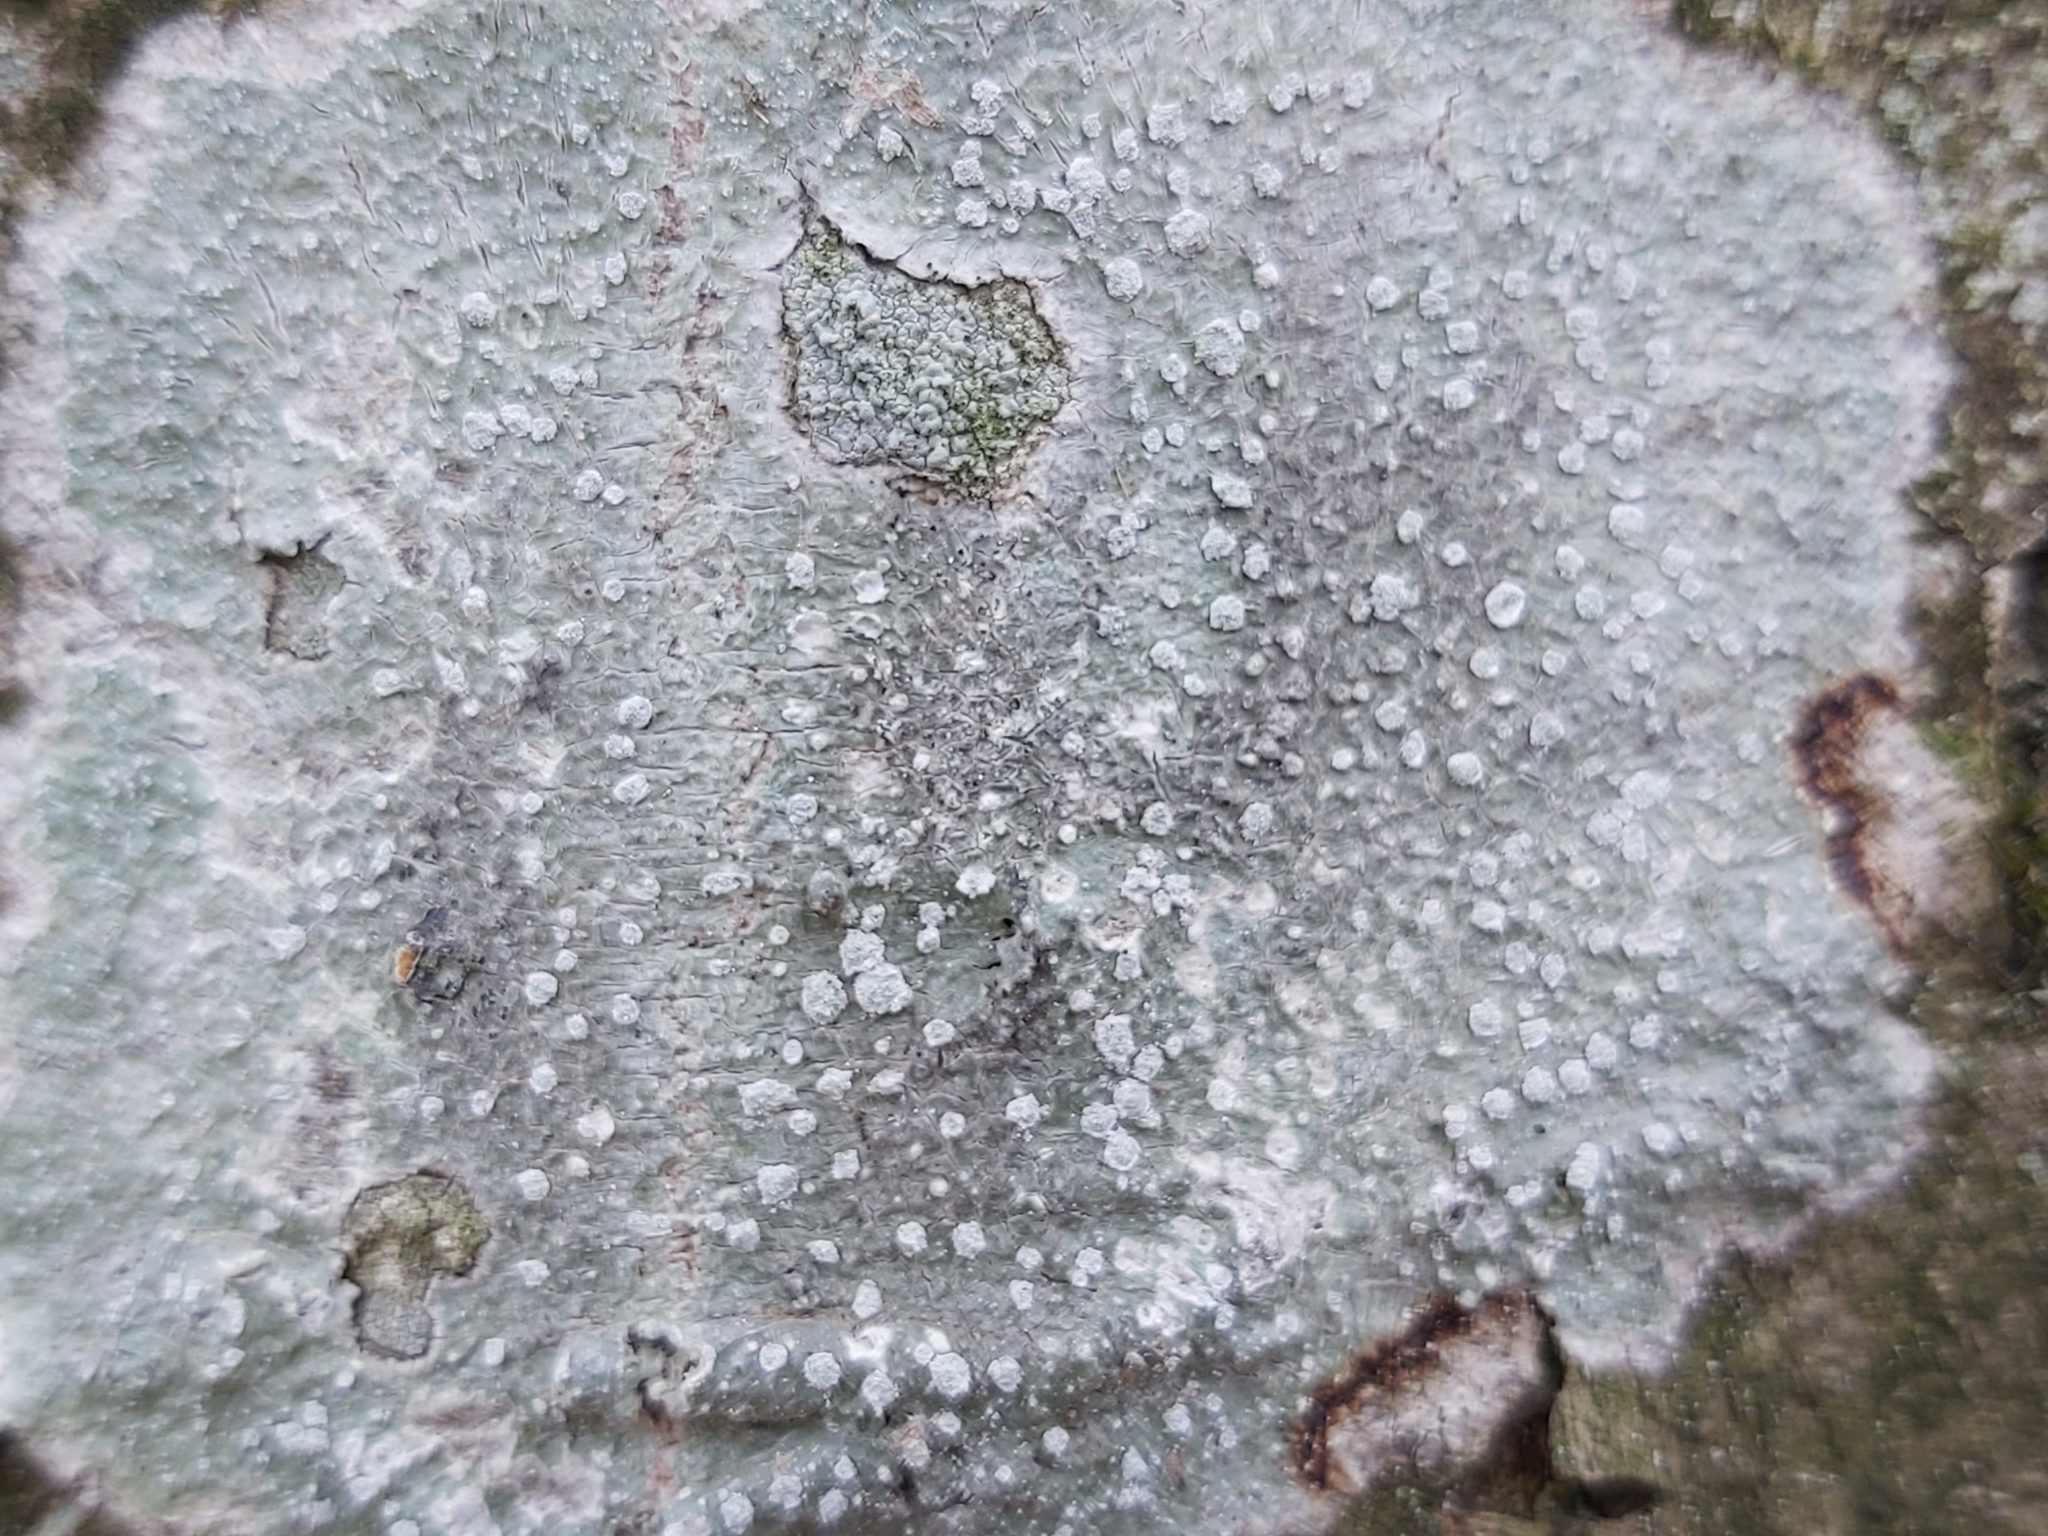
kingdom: Fungi
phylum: Ascomycota
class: Lecanoromycetes
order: Pertusariales
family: Pertusariaceae
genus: Lepra
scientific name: Lepra amara
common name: Bitter wart lichen
